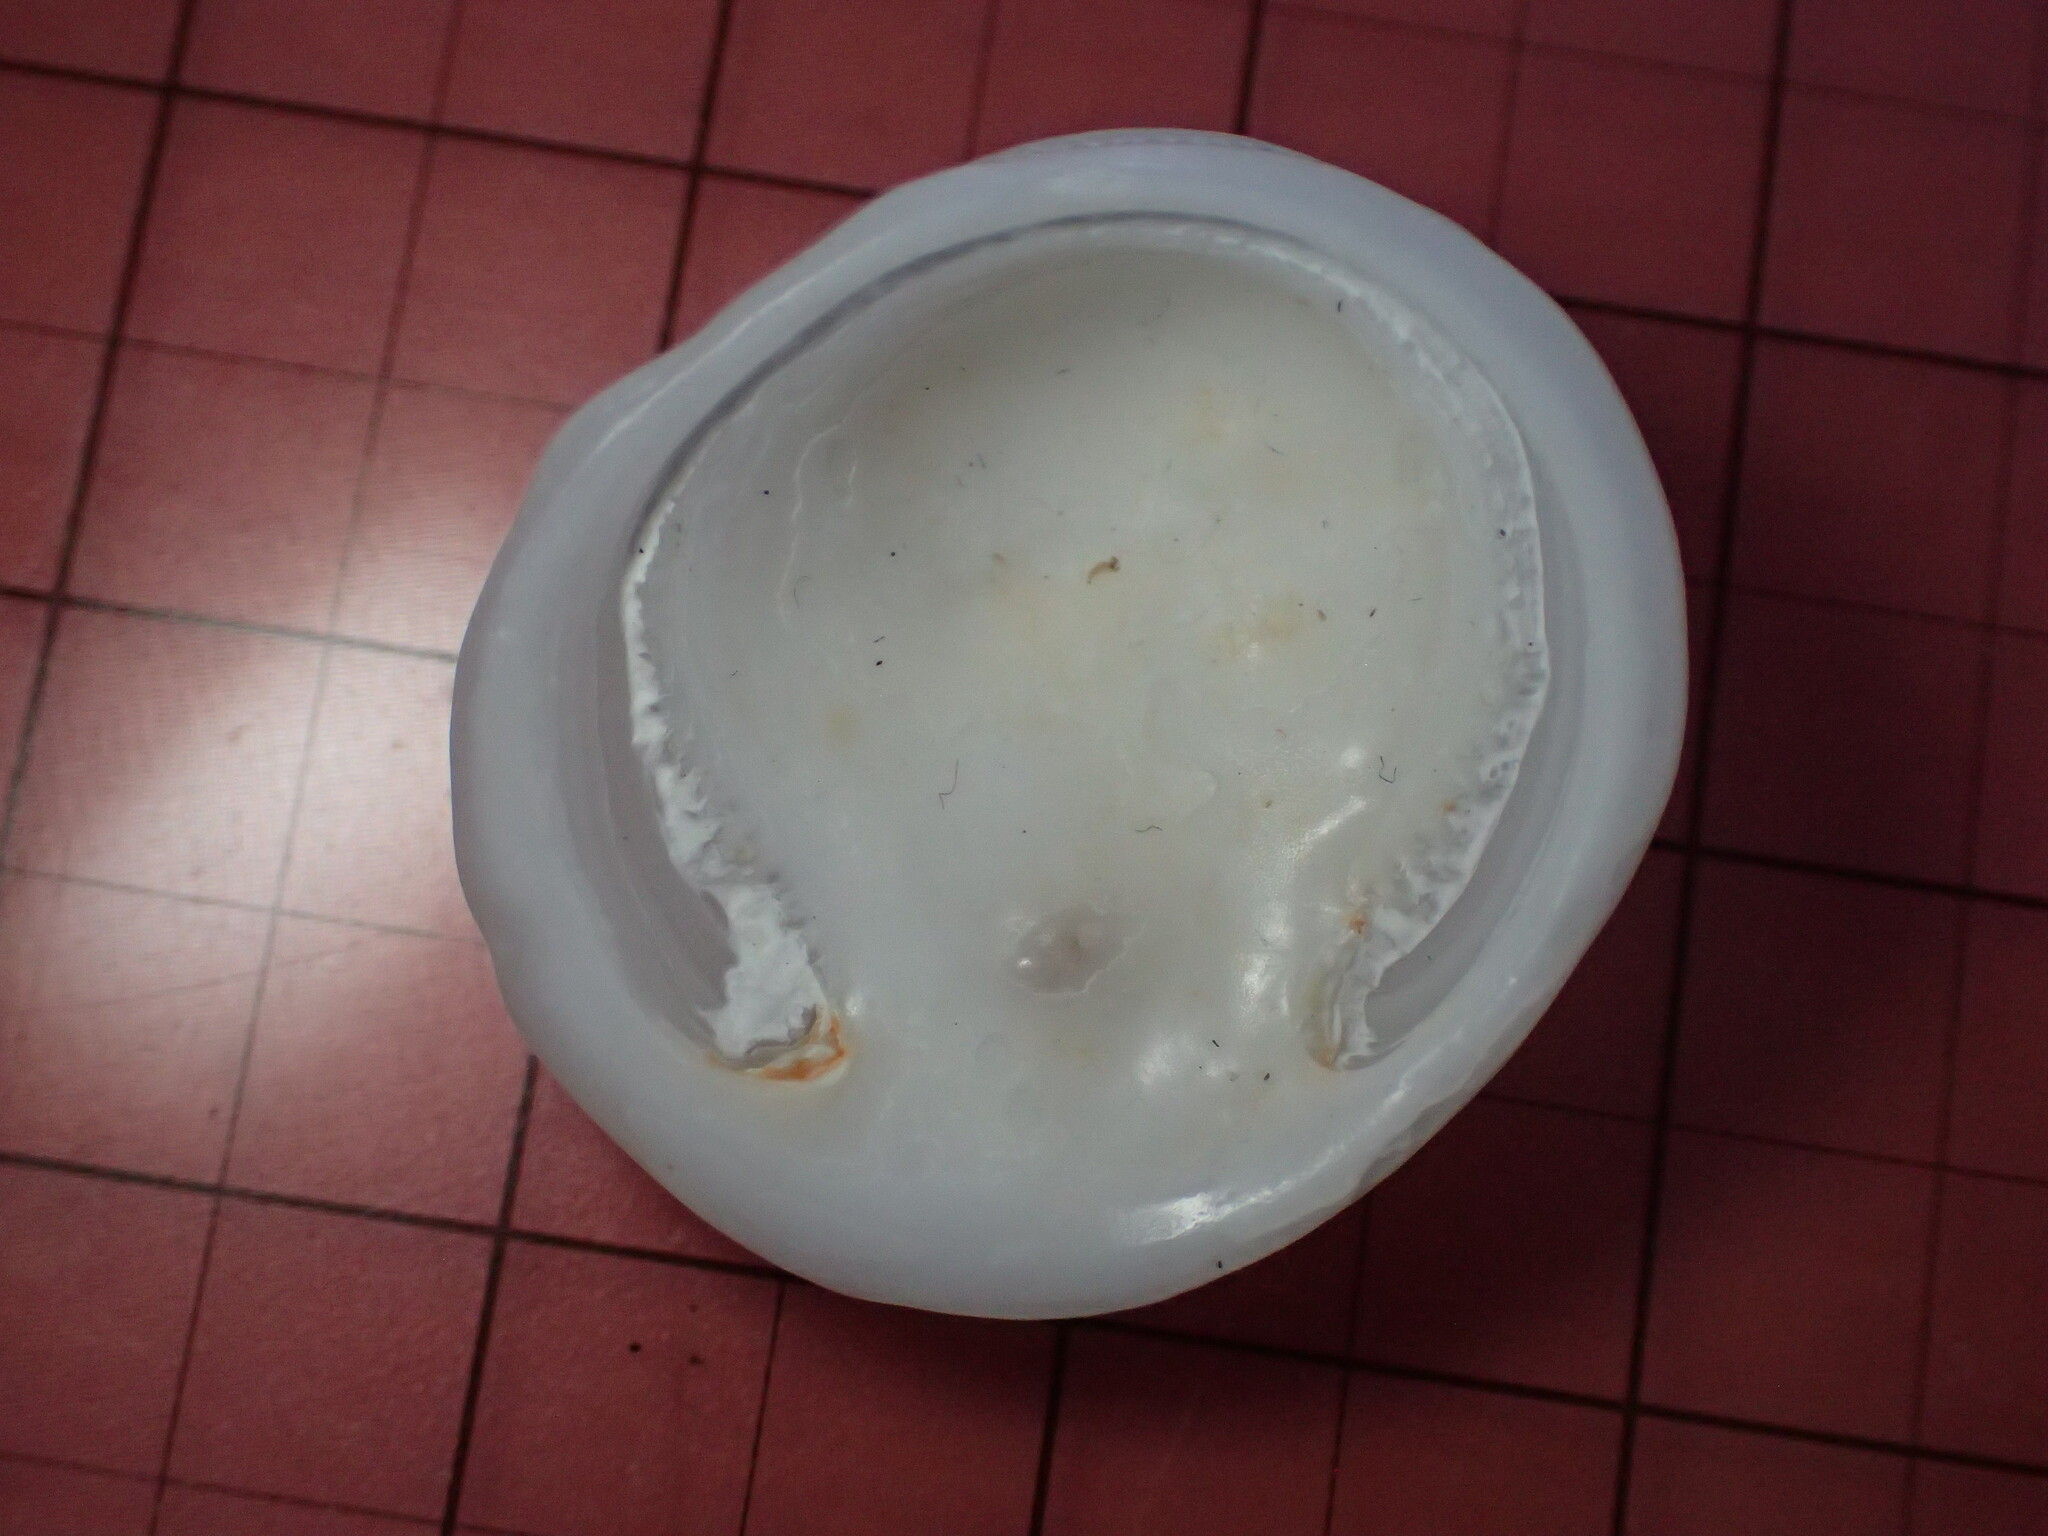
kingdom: Animalia
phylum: Mollusca
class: Gastropoda
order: Littorinimorpha
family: Hipponicidae
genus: Hipponix
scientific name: Hipponix panamensis
